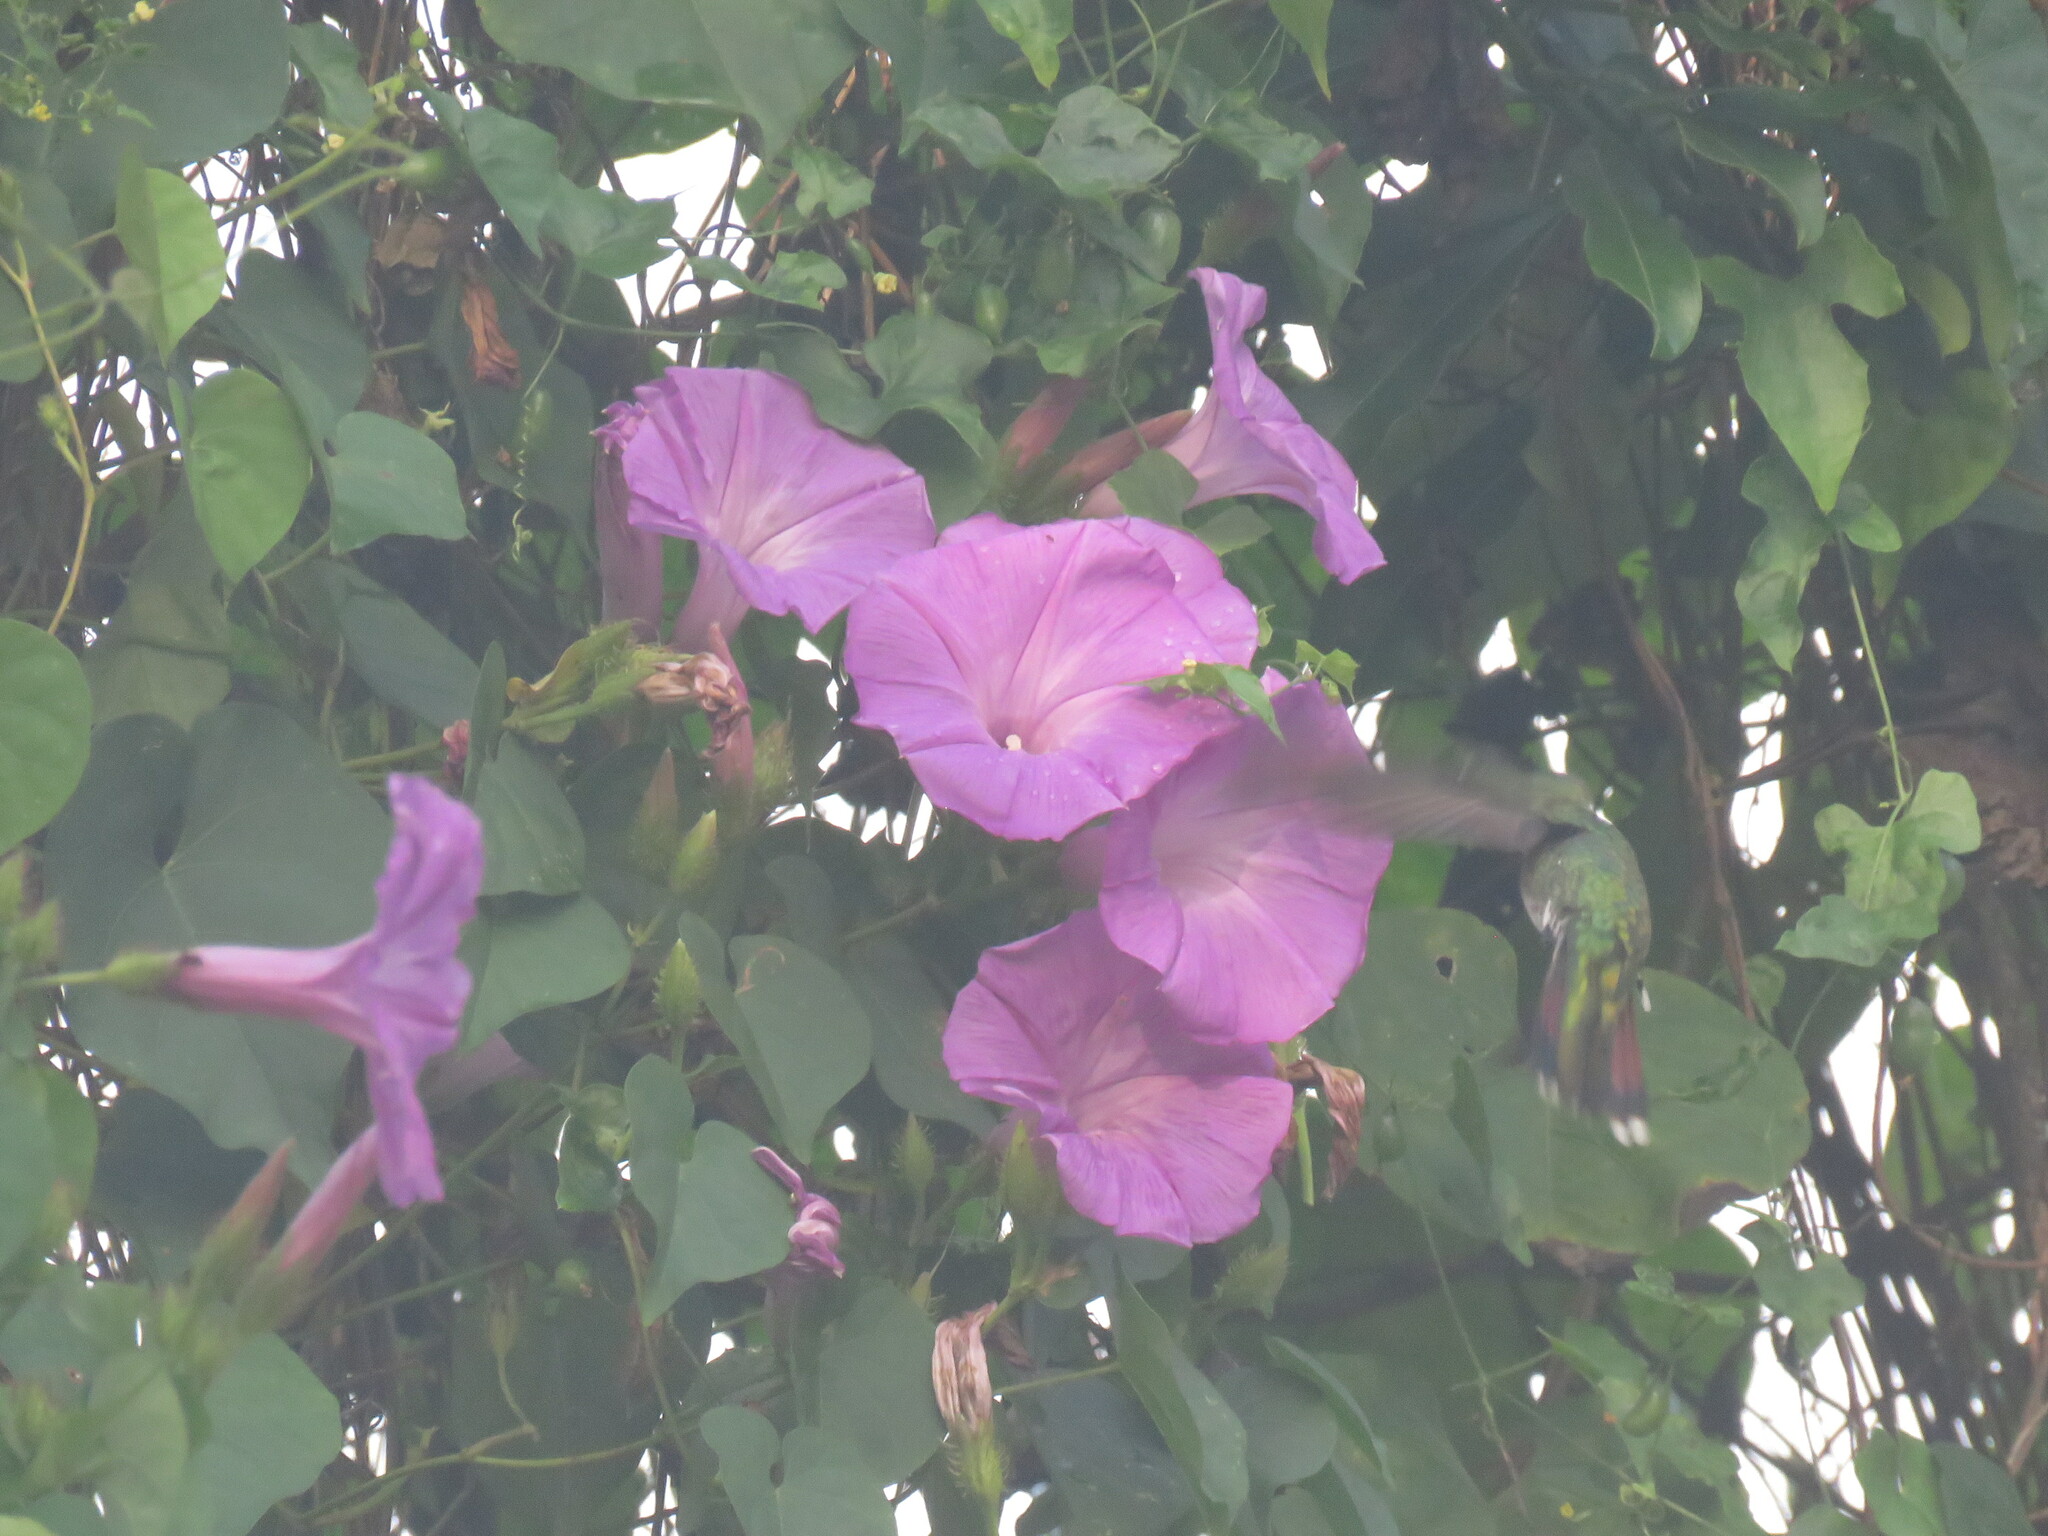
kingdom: Animalia
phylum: Chordata
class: Aves
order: Apodiformes
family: Trochilidae
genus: Anthracothorax
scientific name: Anthracothorax prevostii
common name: Green-breasted mango
